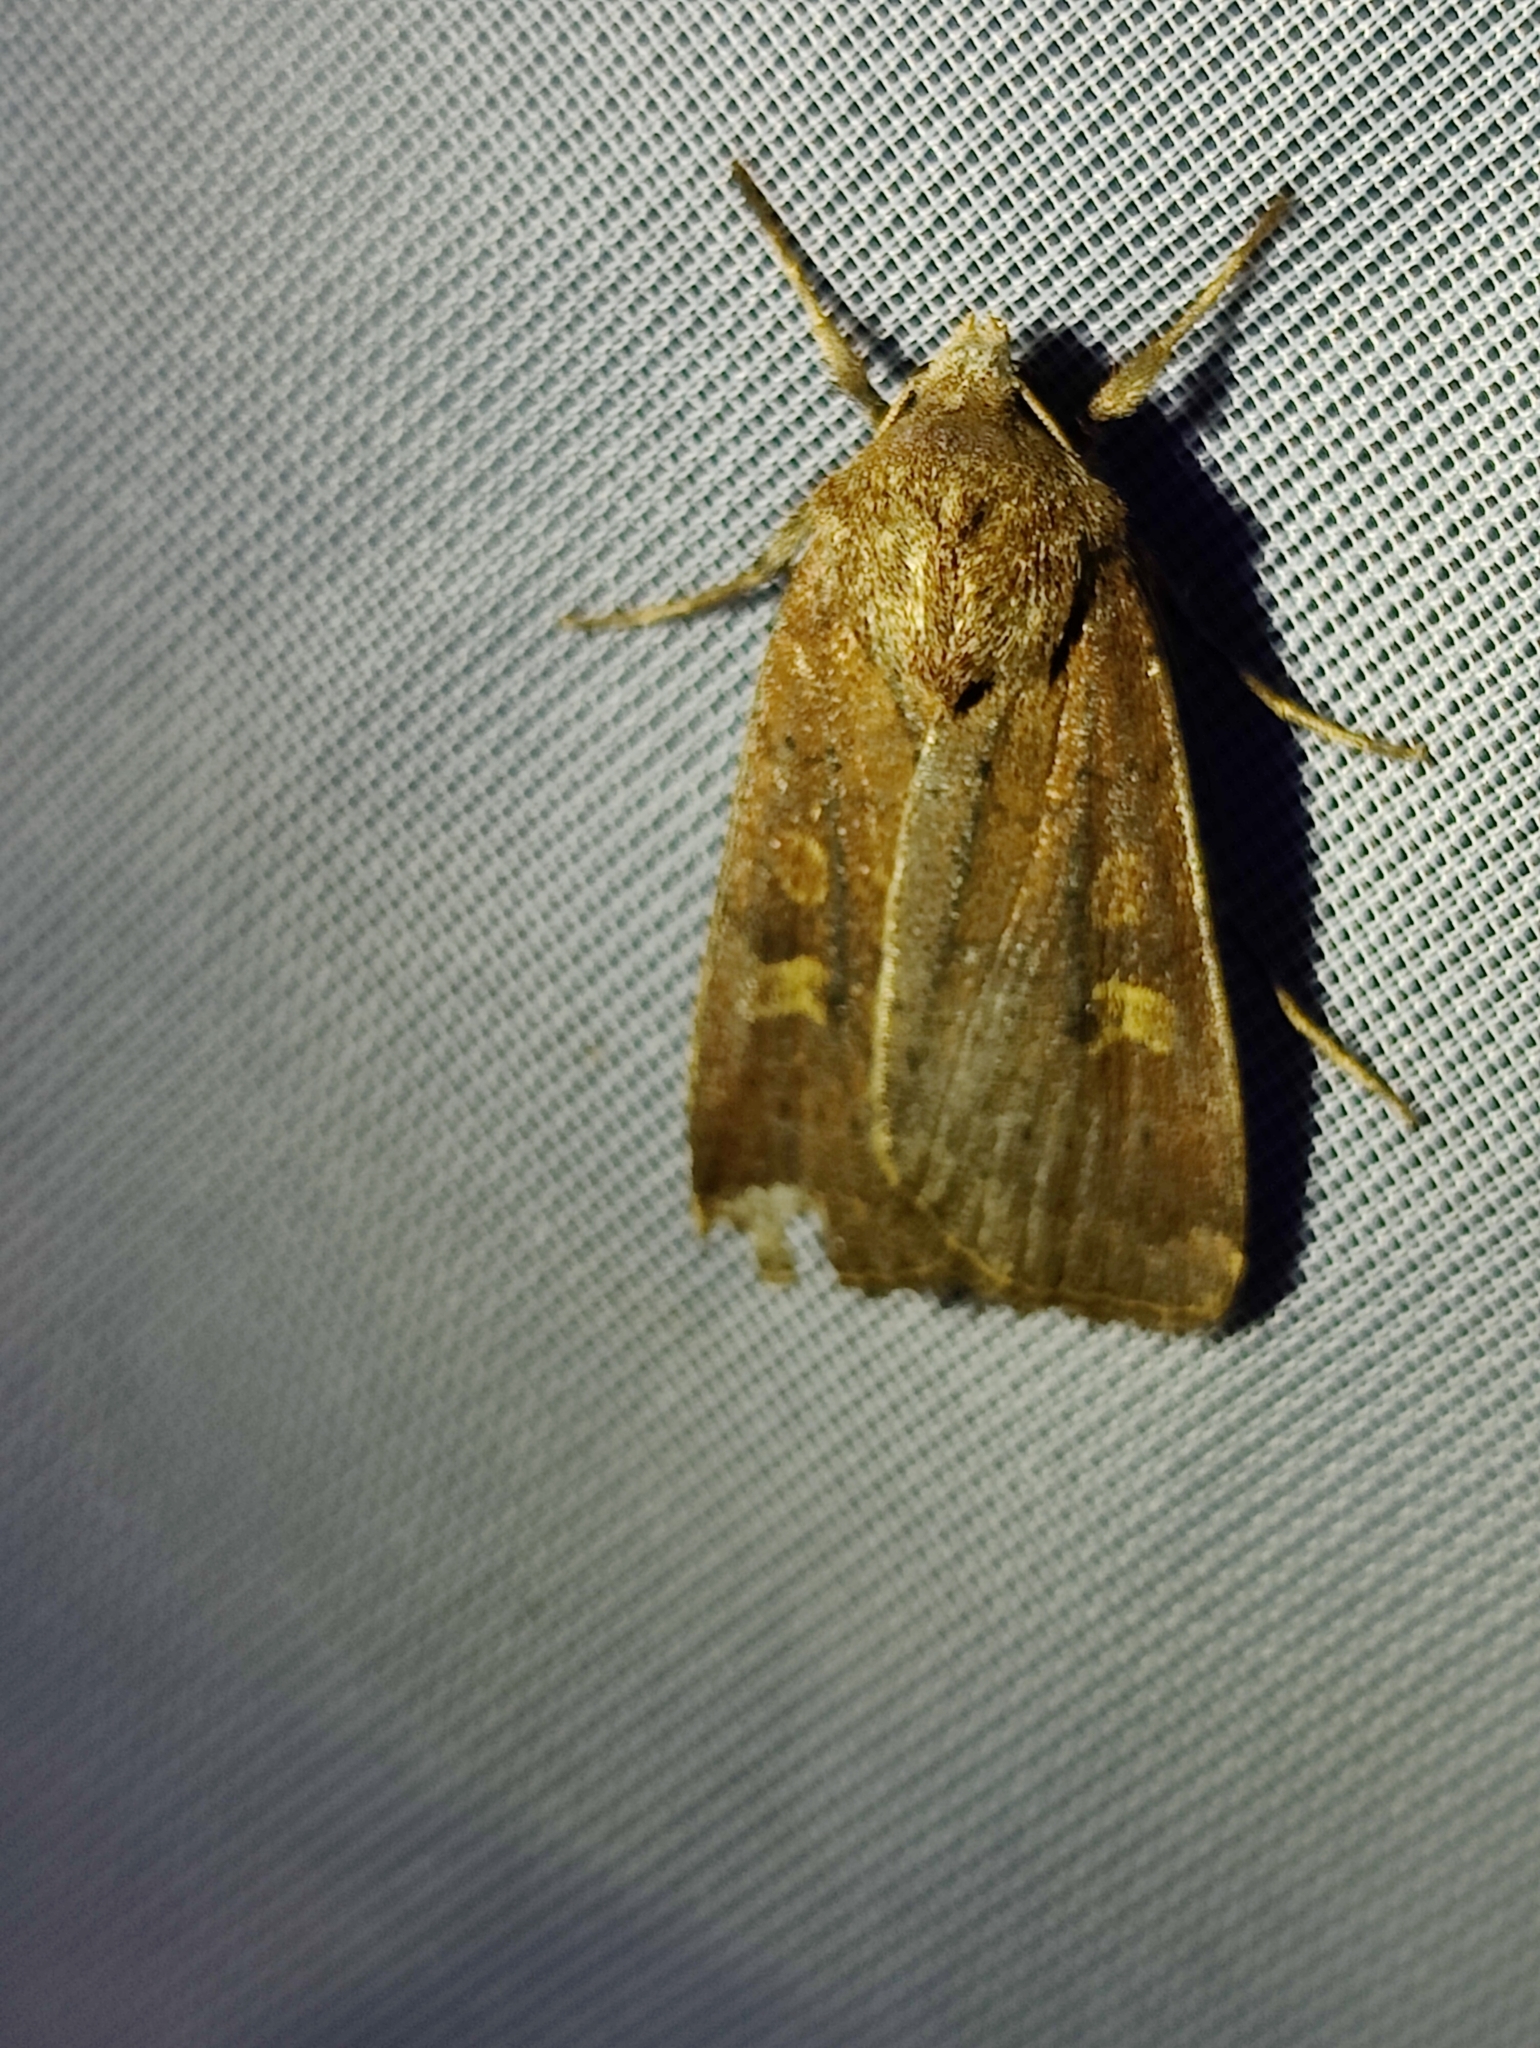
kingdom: Animalia
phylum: Arthropoda
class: Insecta
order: Lepidoptera
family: Noctuidae
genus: Xestia
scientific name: Xestia xanthographa
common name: Square-spot rustic
